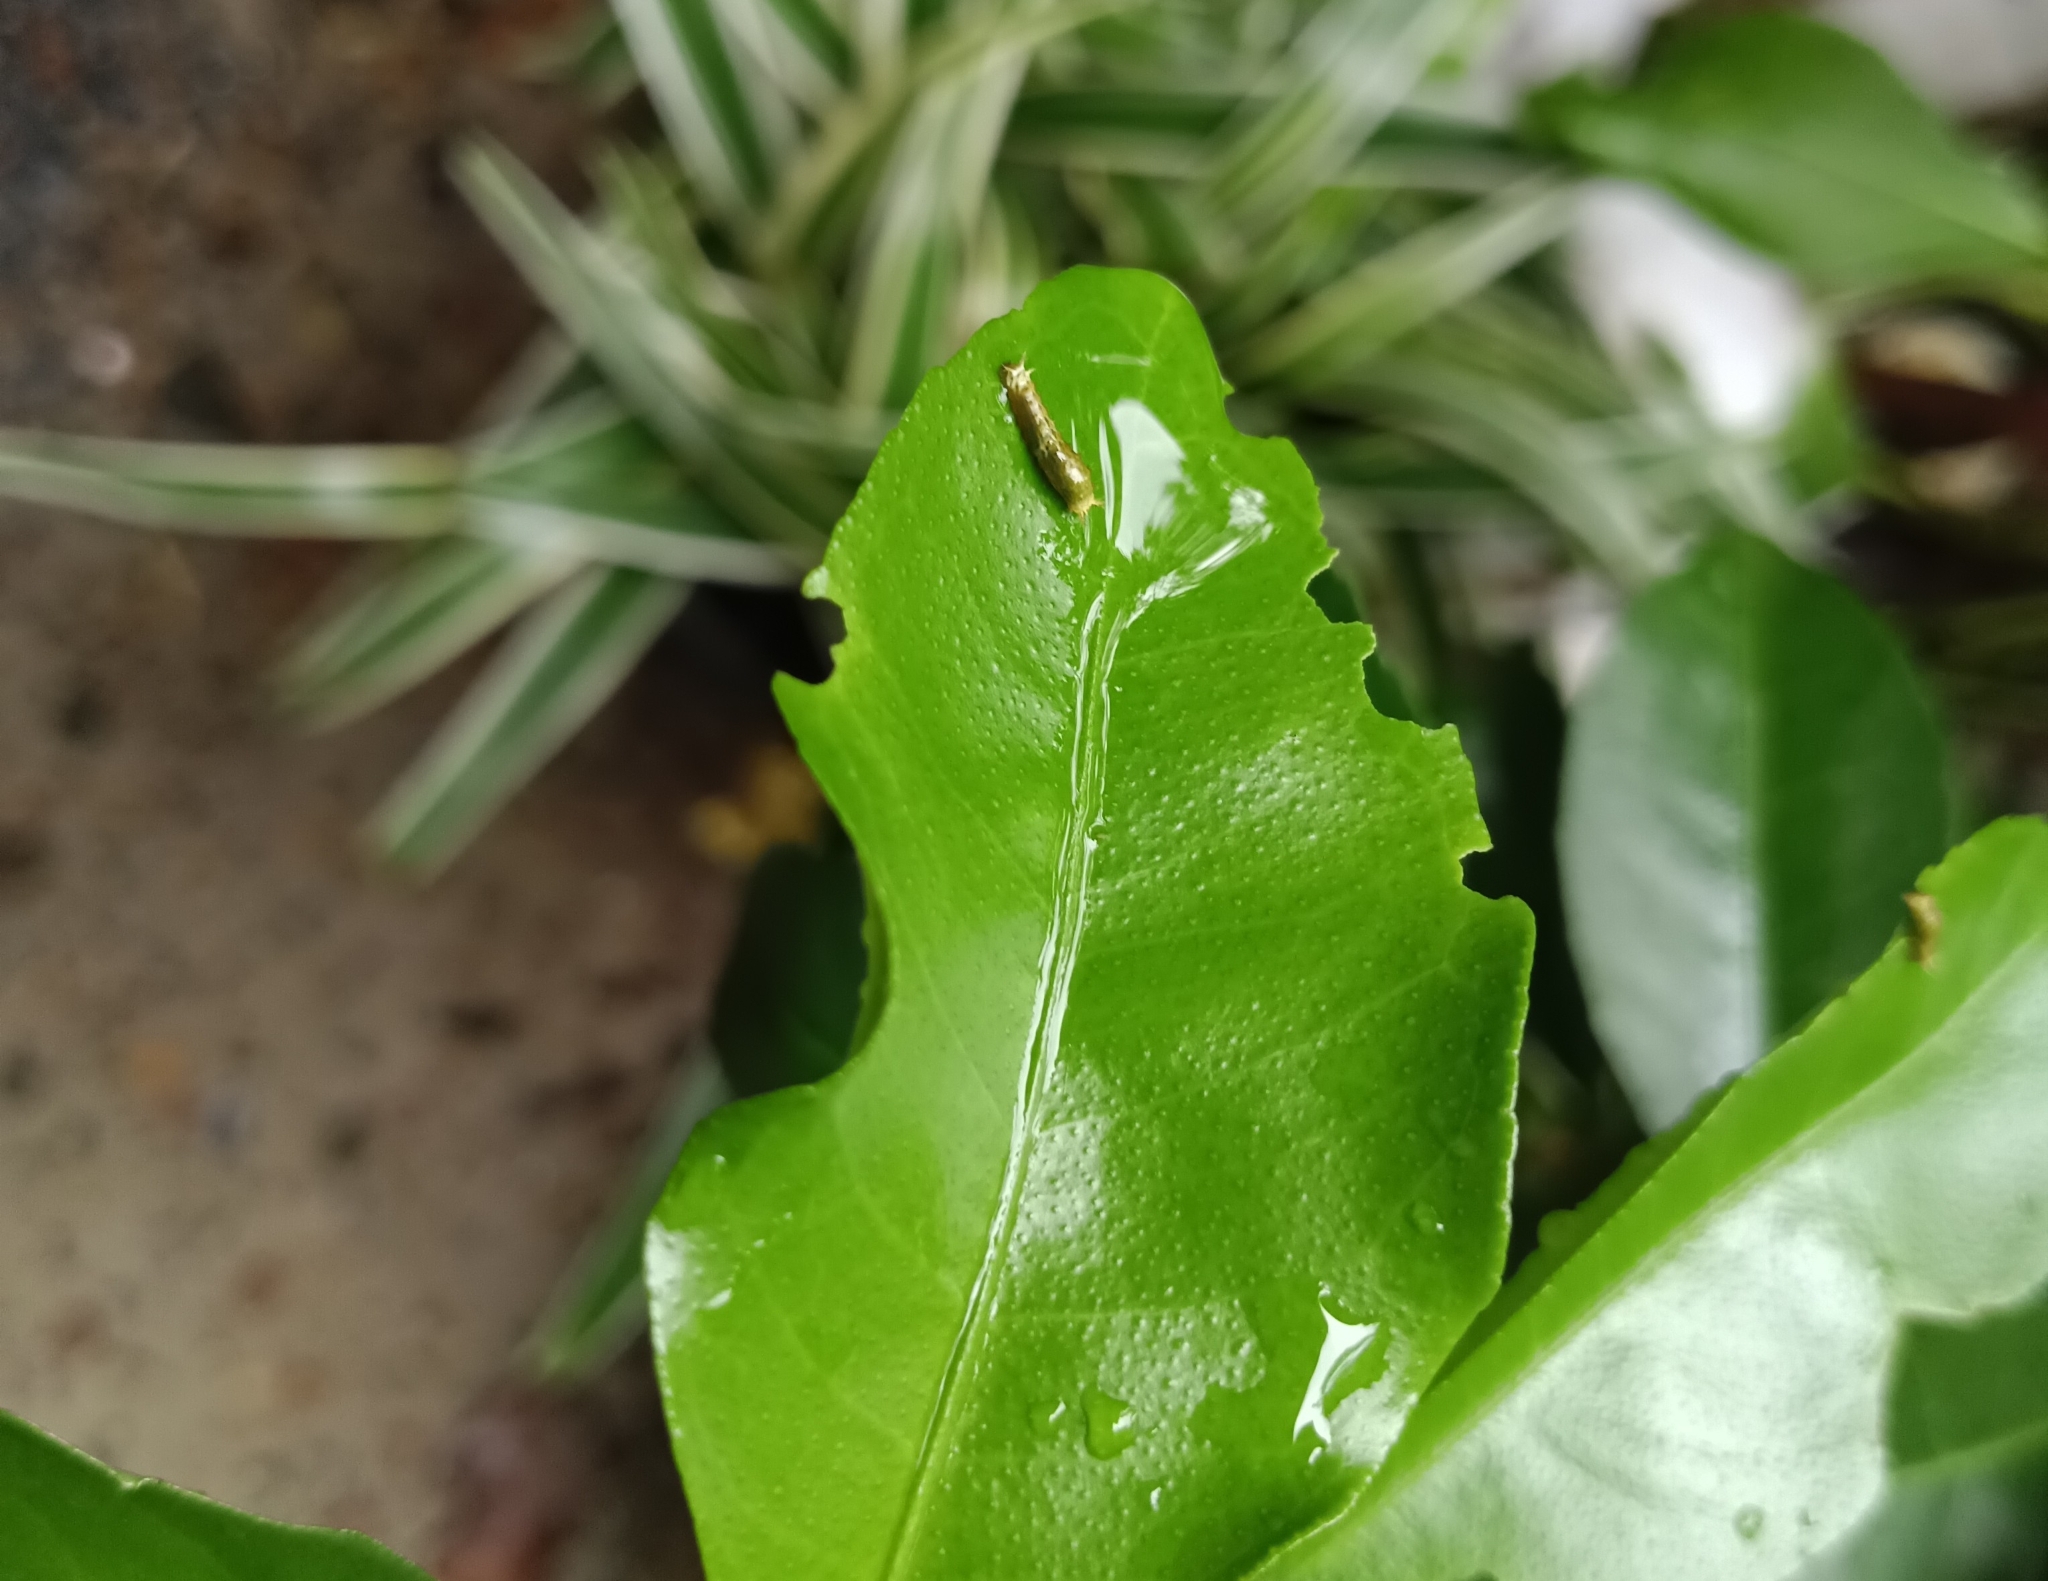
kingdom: Animalia
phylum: Arthropoda
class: Insecta
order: Lepidoptera
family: Papilionidae
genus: Papilio
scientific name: Papilio polytes
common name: Common mormon
